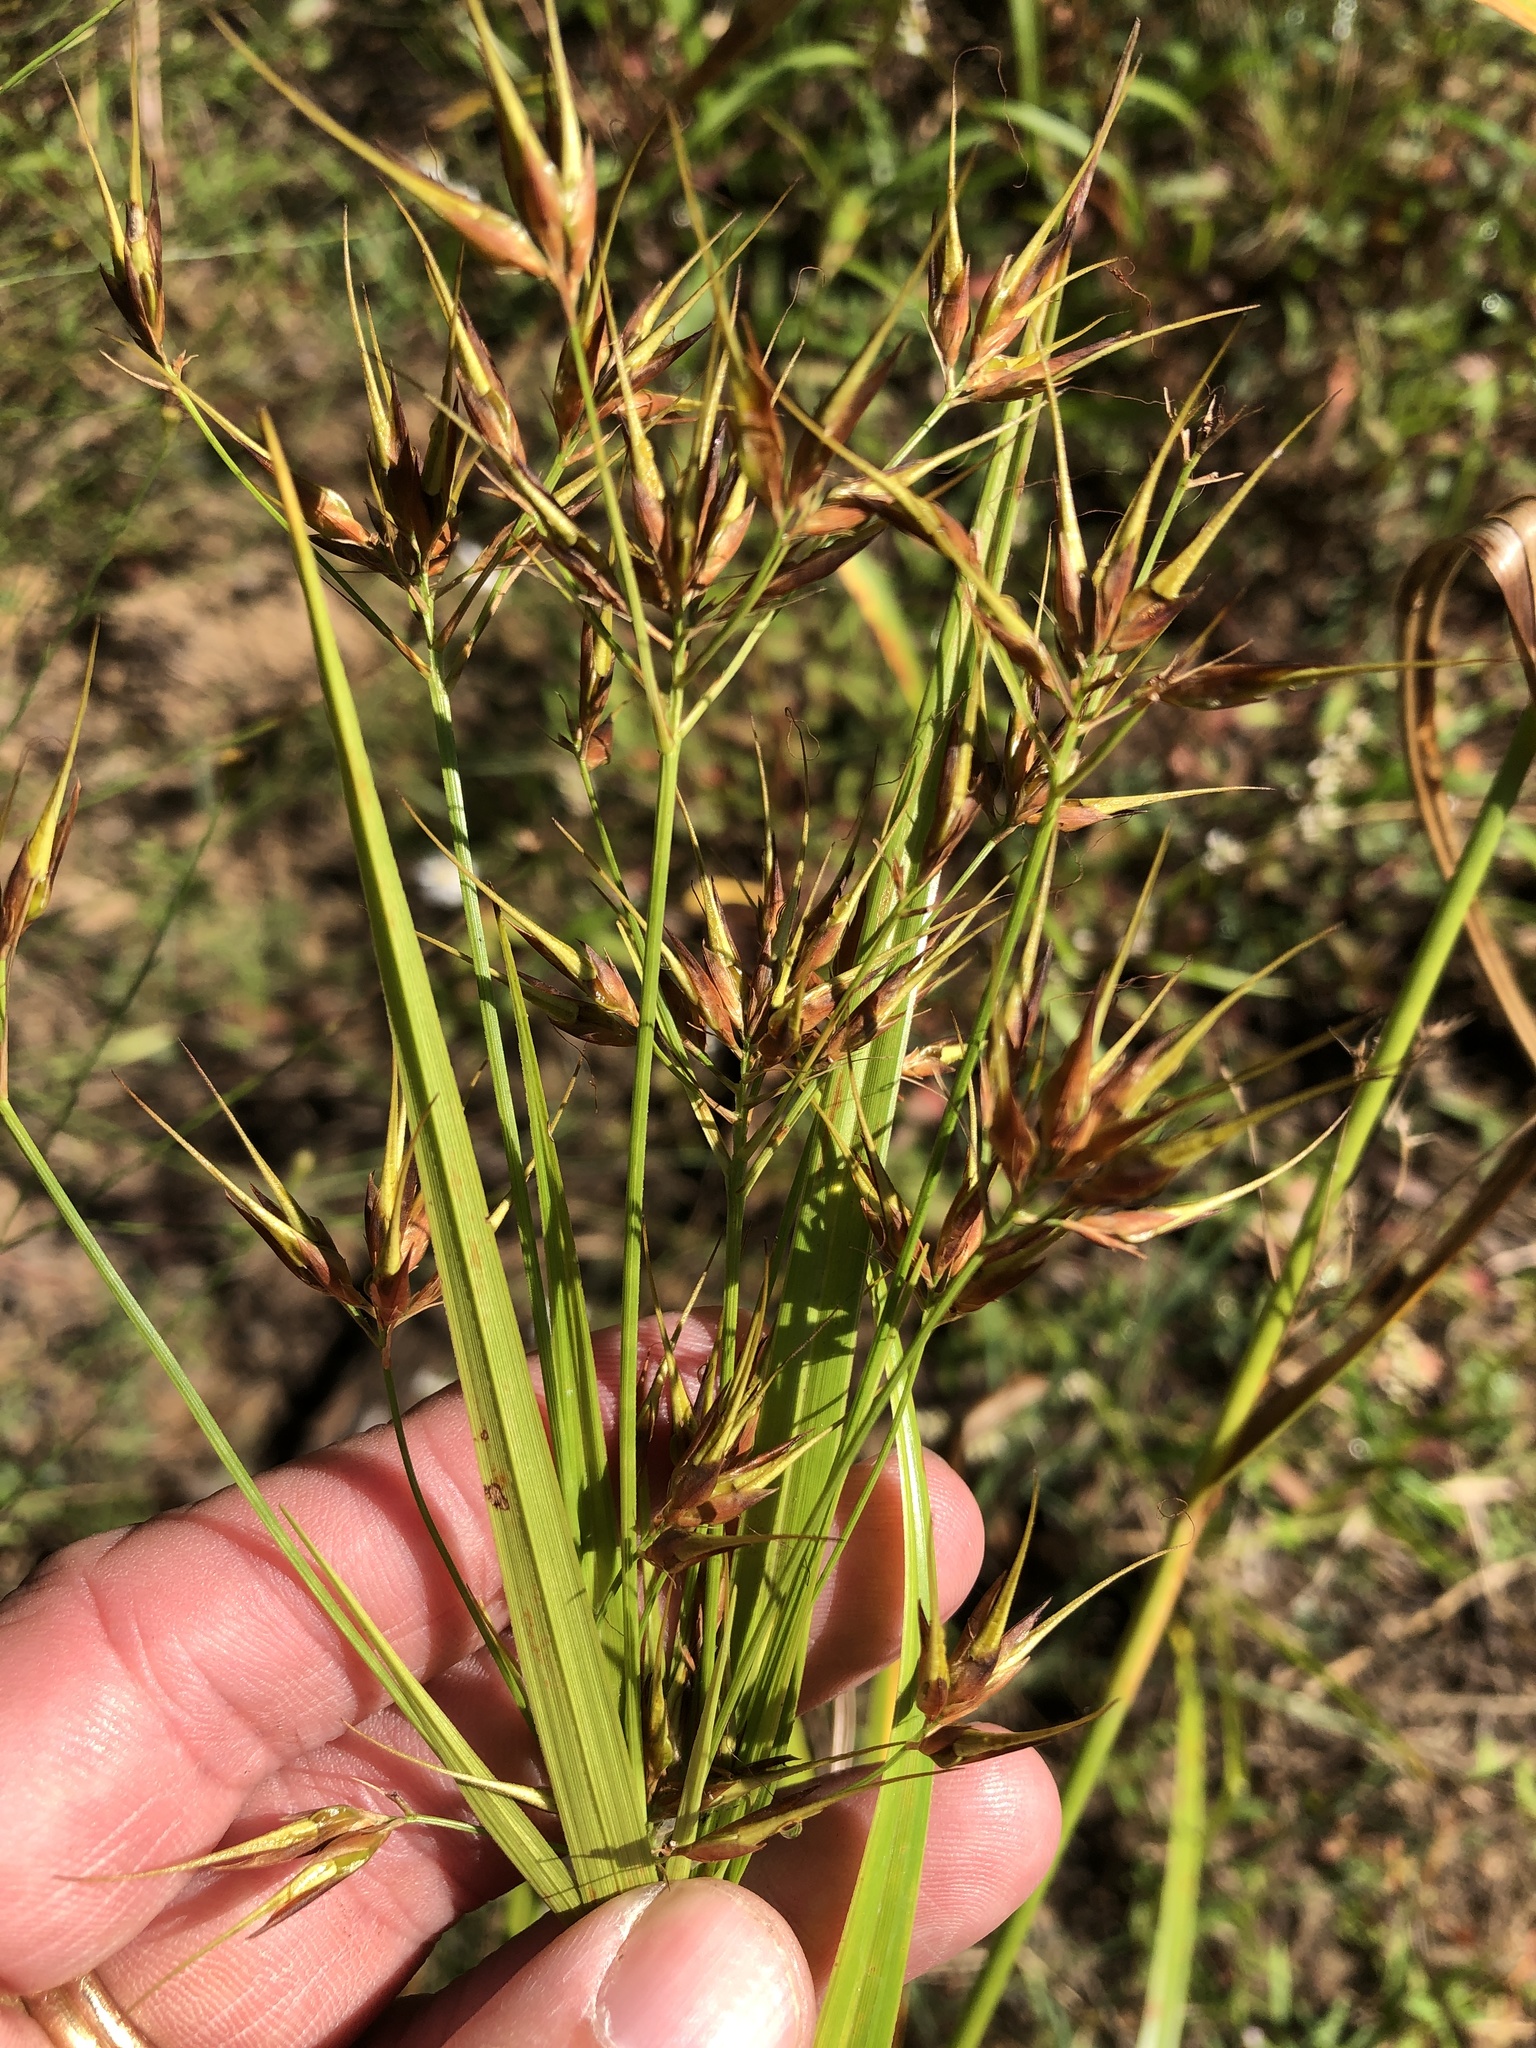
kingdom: Plantae
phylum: Tracheophyta
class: Liliopsida
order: Poales
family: Cyperaceae
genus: Rhynchospora
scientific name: Rhynchospora corniculata
